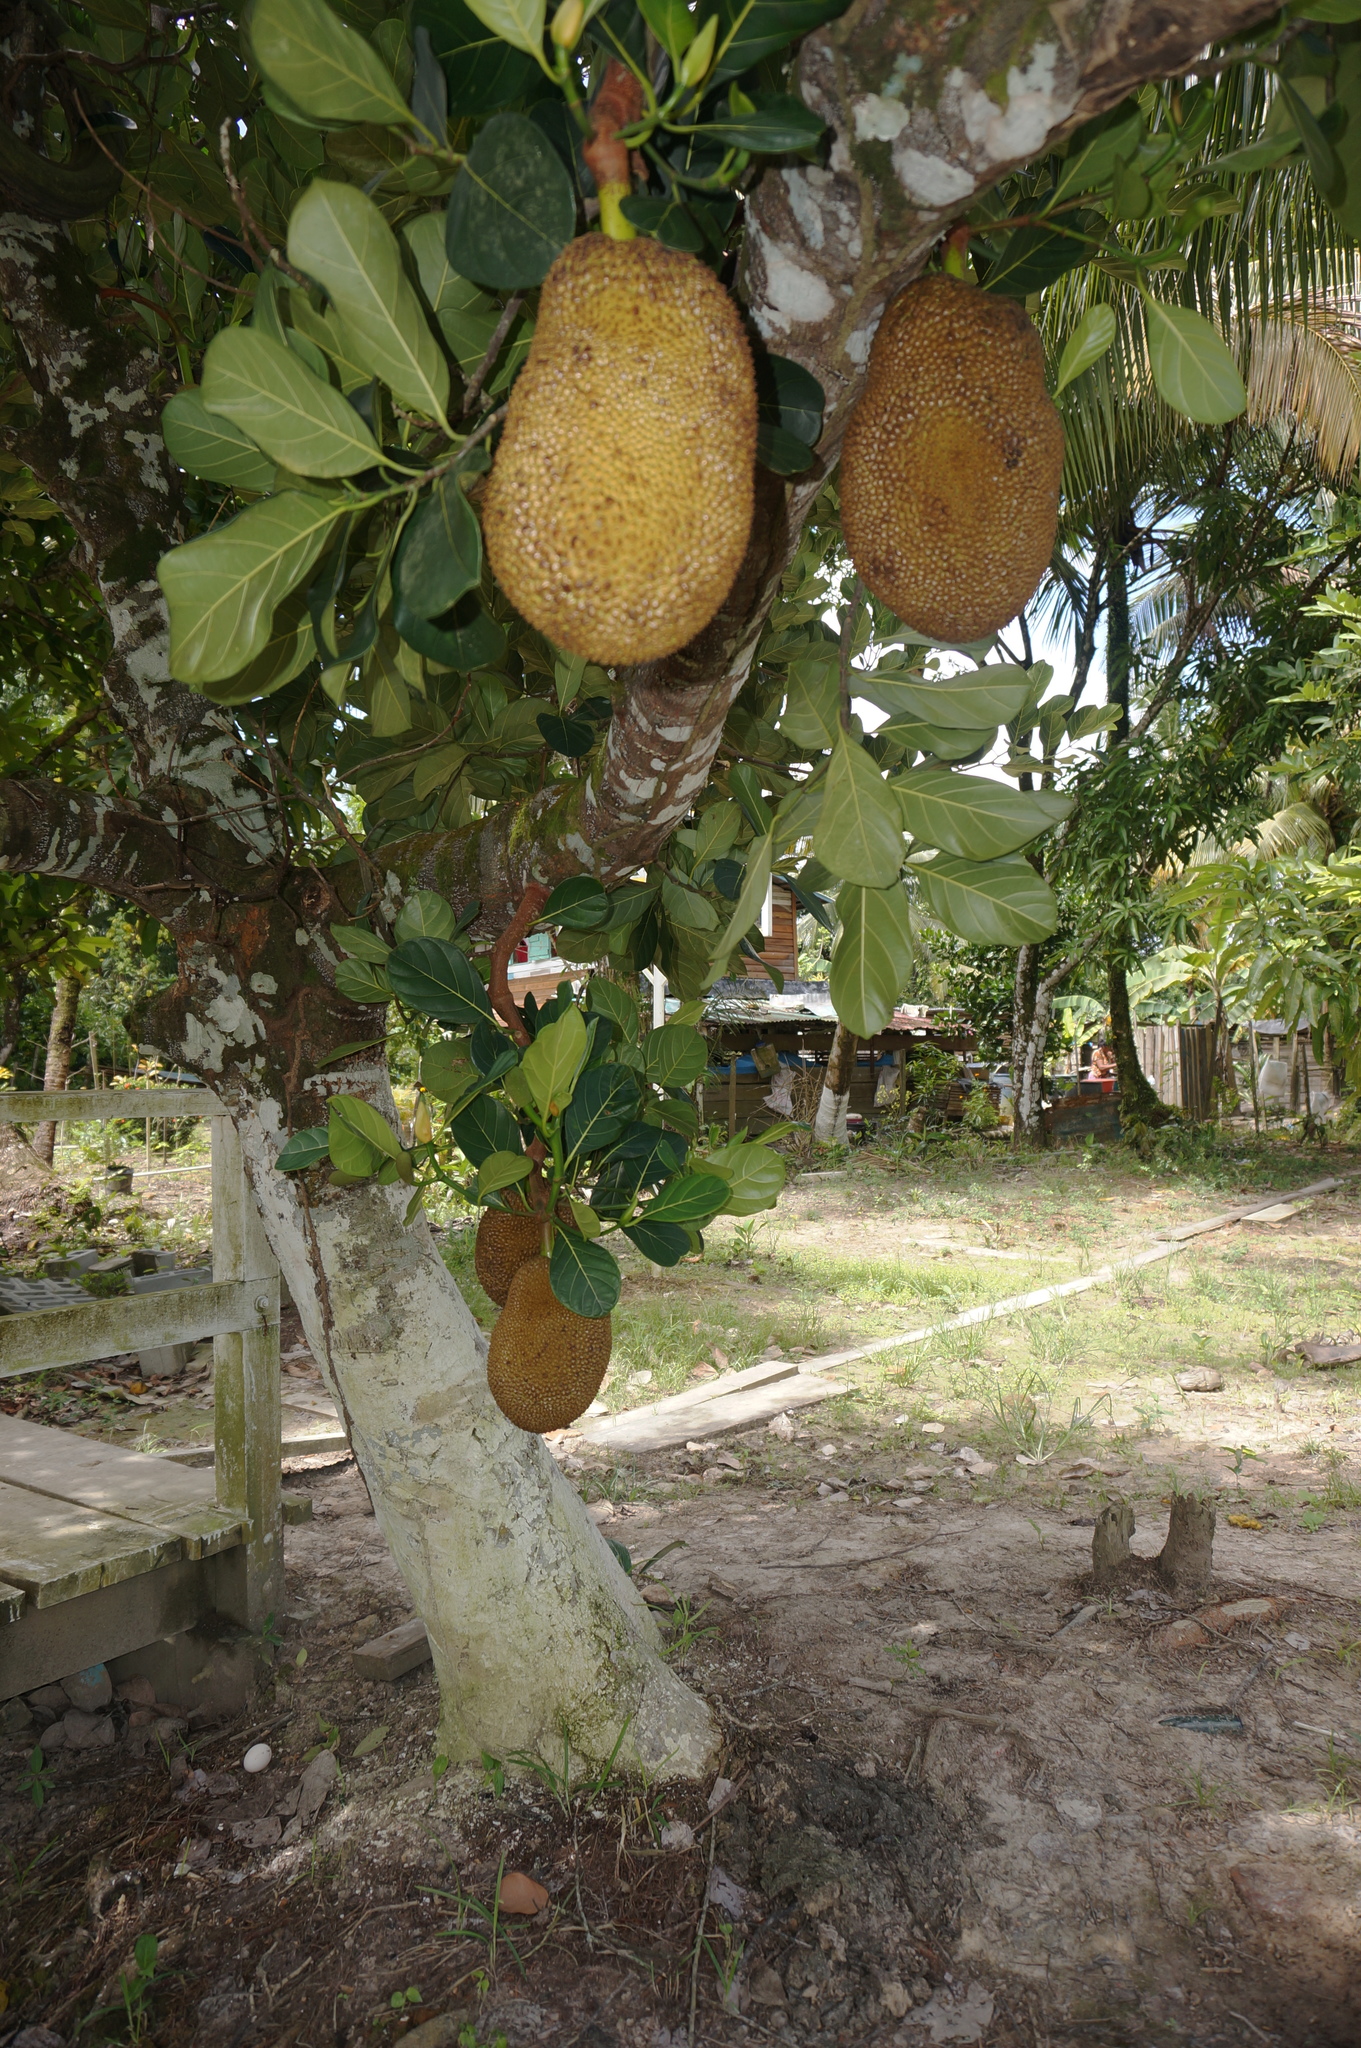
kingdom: Plantae
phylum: Tracheophyta
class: Magnoliopsida
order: Rosales
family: Moraceae
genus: Artocarpus
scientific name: Artocarpus heterophyllus
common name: Jackfruit
